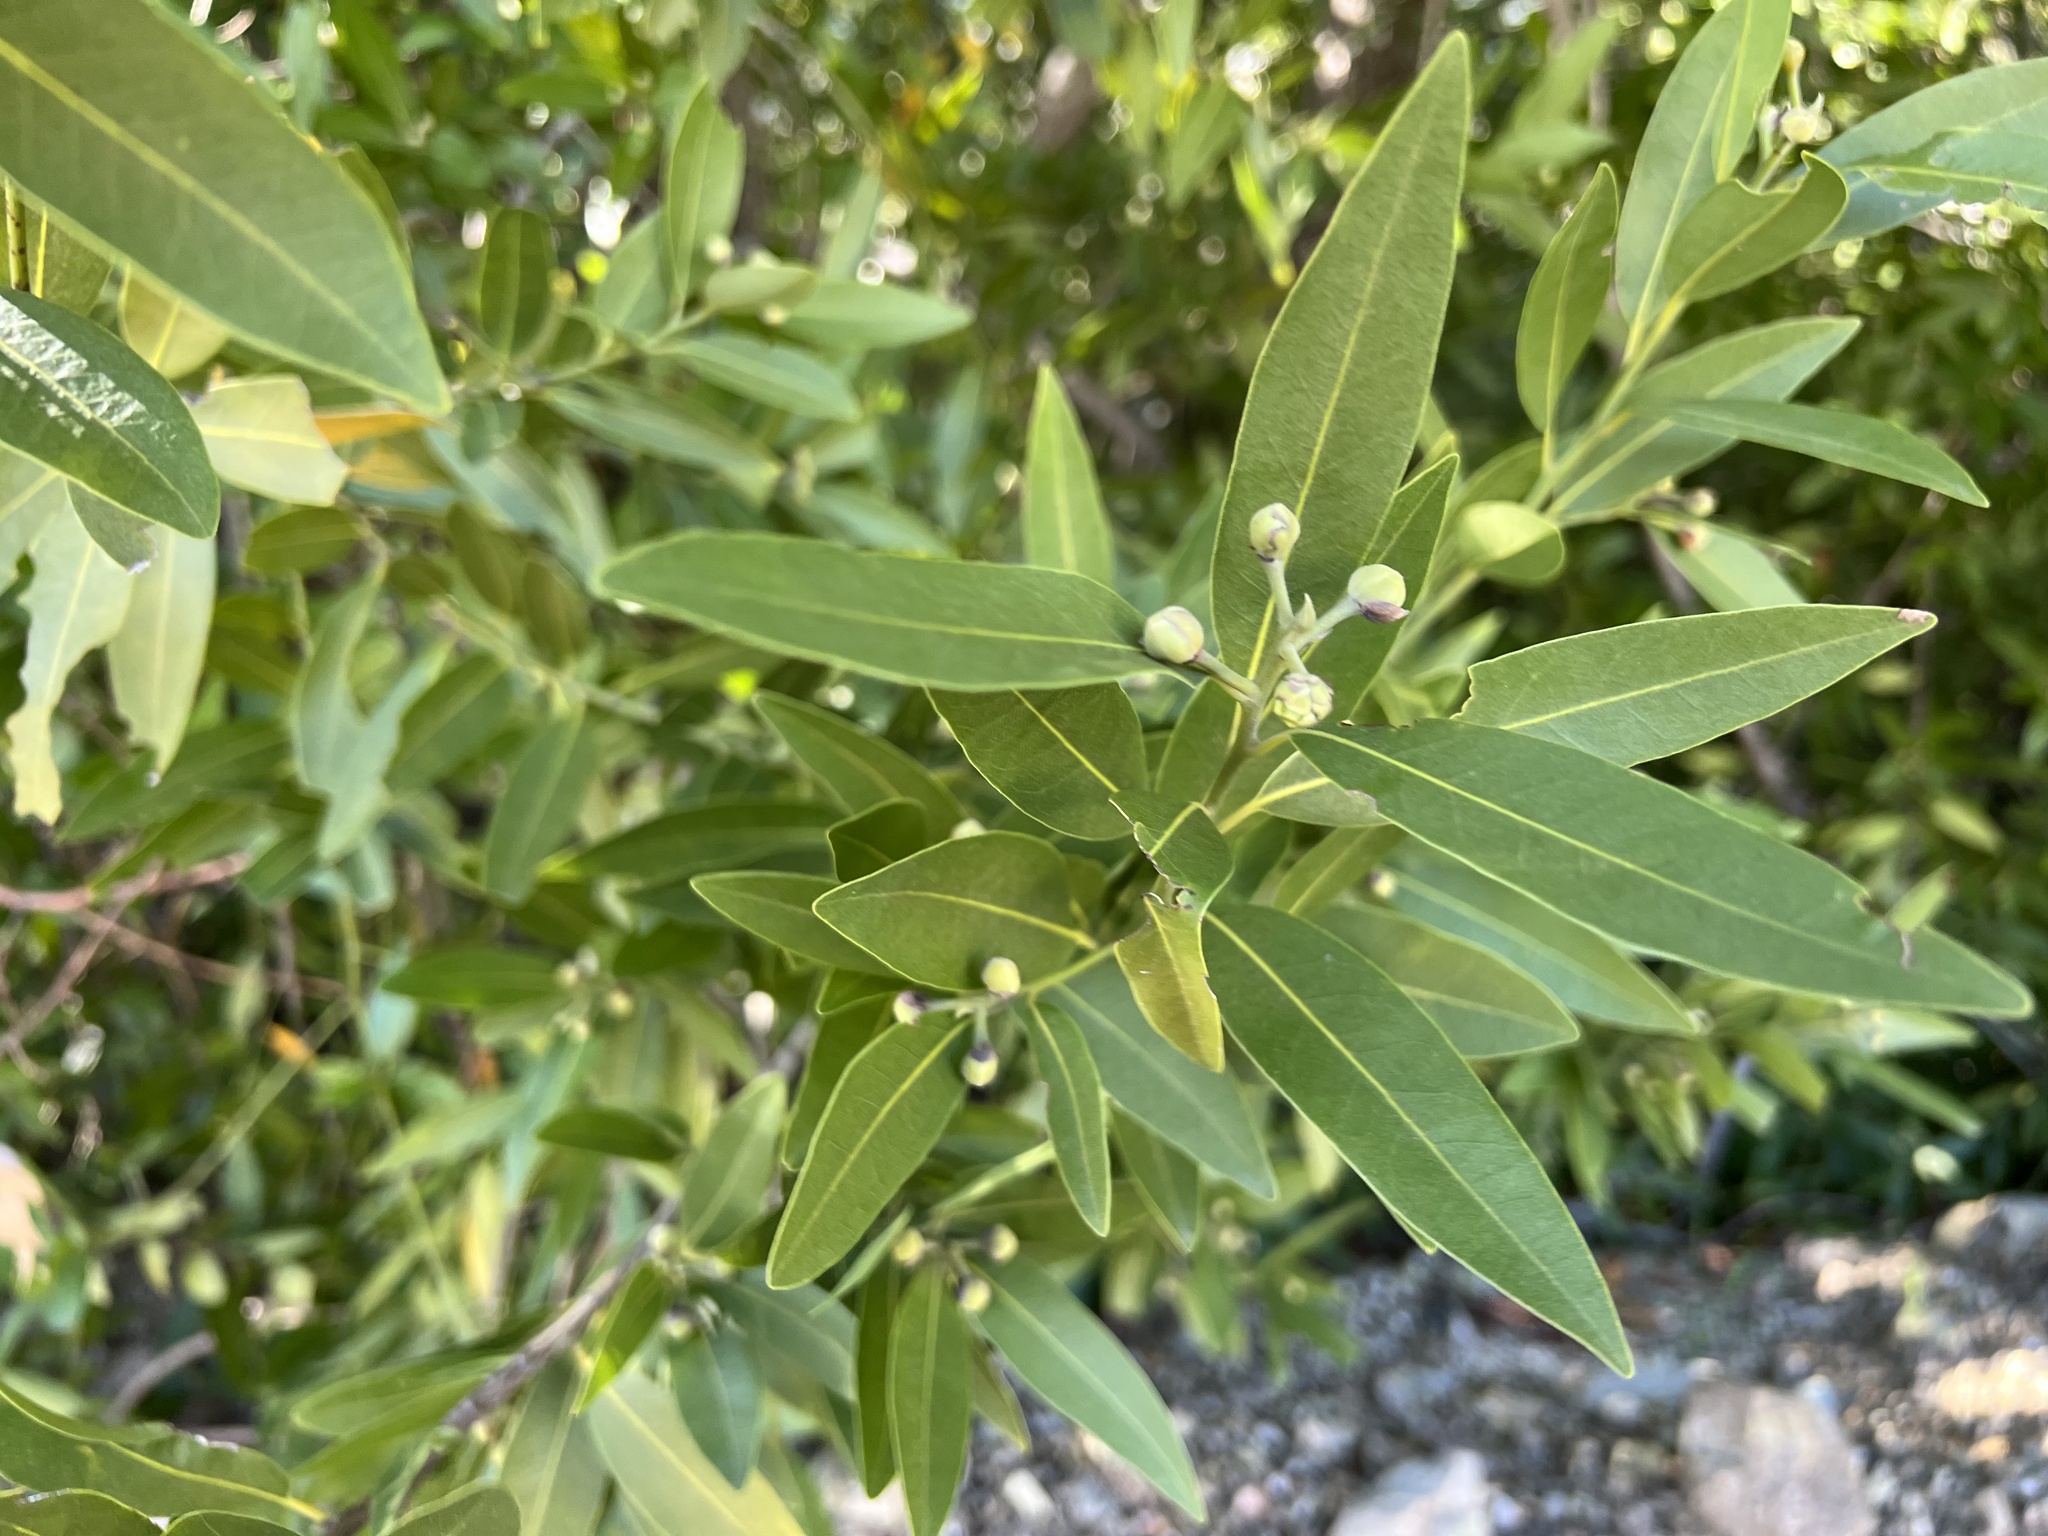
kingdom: Plantae
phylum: Tracheophyta
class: Magnoliopsida
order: Laurales
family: Lauraceae
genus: Umbellularia
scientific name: Umbellularia californica
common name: California bay
